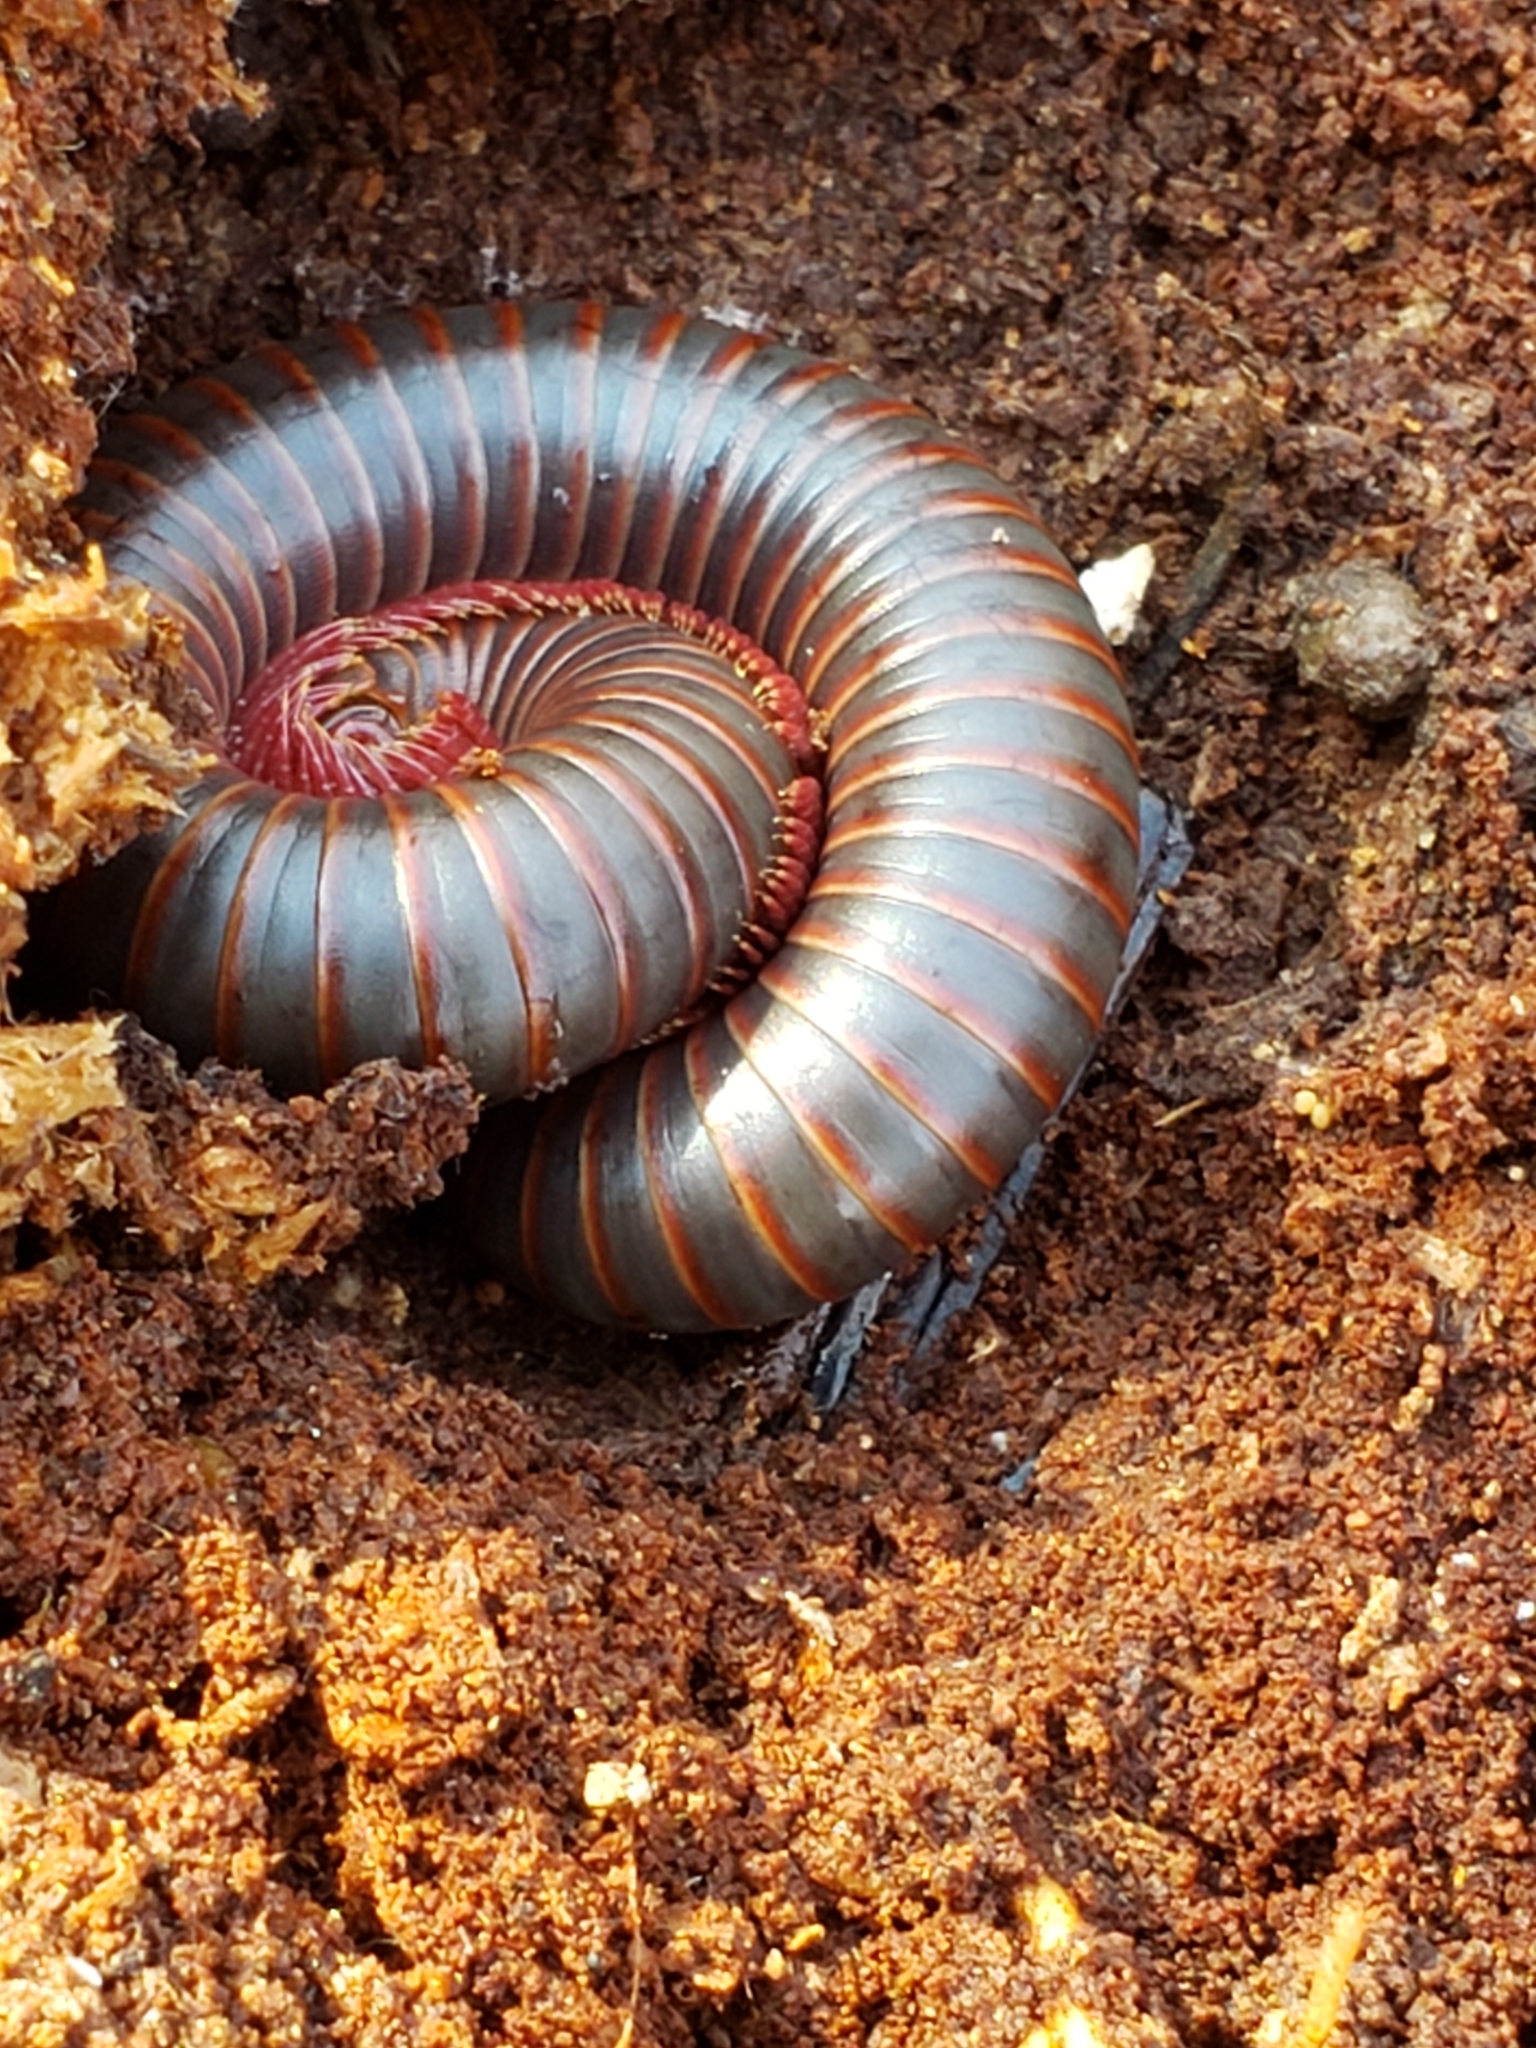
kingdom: Animalia
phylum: Arthropoda
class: Diplopoda
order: Spirobolida
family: Spirobolidae
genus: Narceus
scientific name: Narceus
